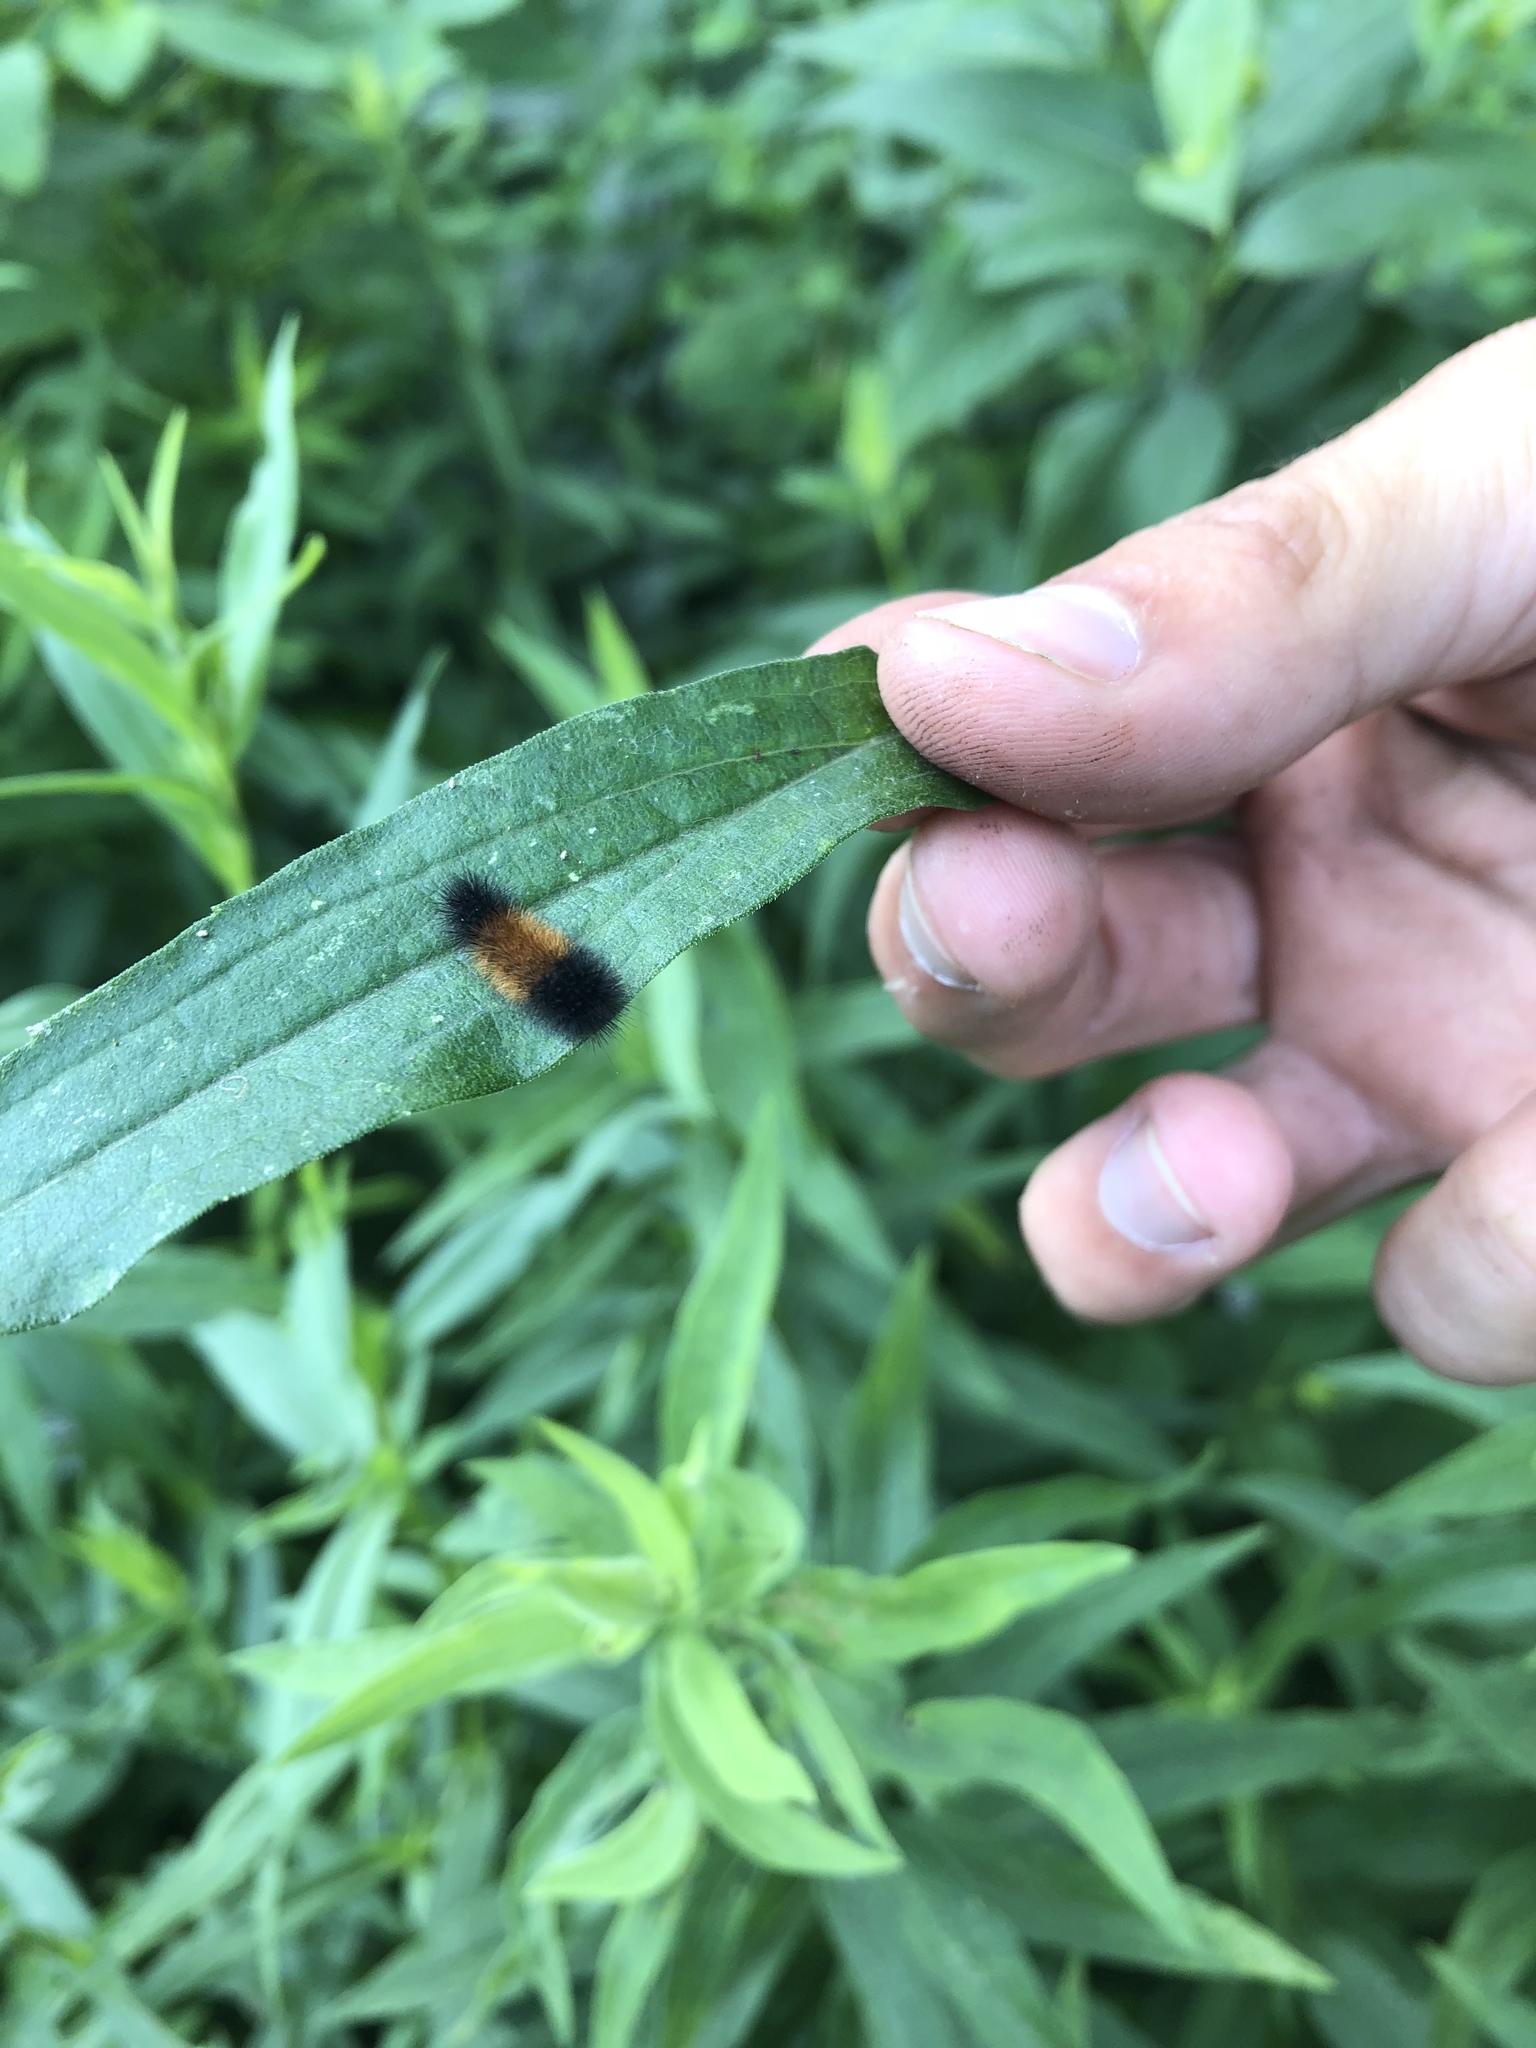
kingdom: Animalia
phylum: Arthropoda
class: Insecta
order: Lepidoptera
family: Erebidae
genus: Pyrrharctia
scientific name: Pyrrharctia isabella
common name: Isabella tiger moth
